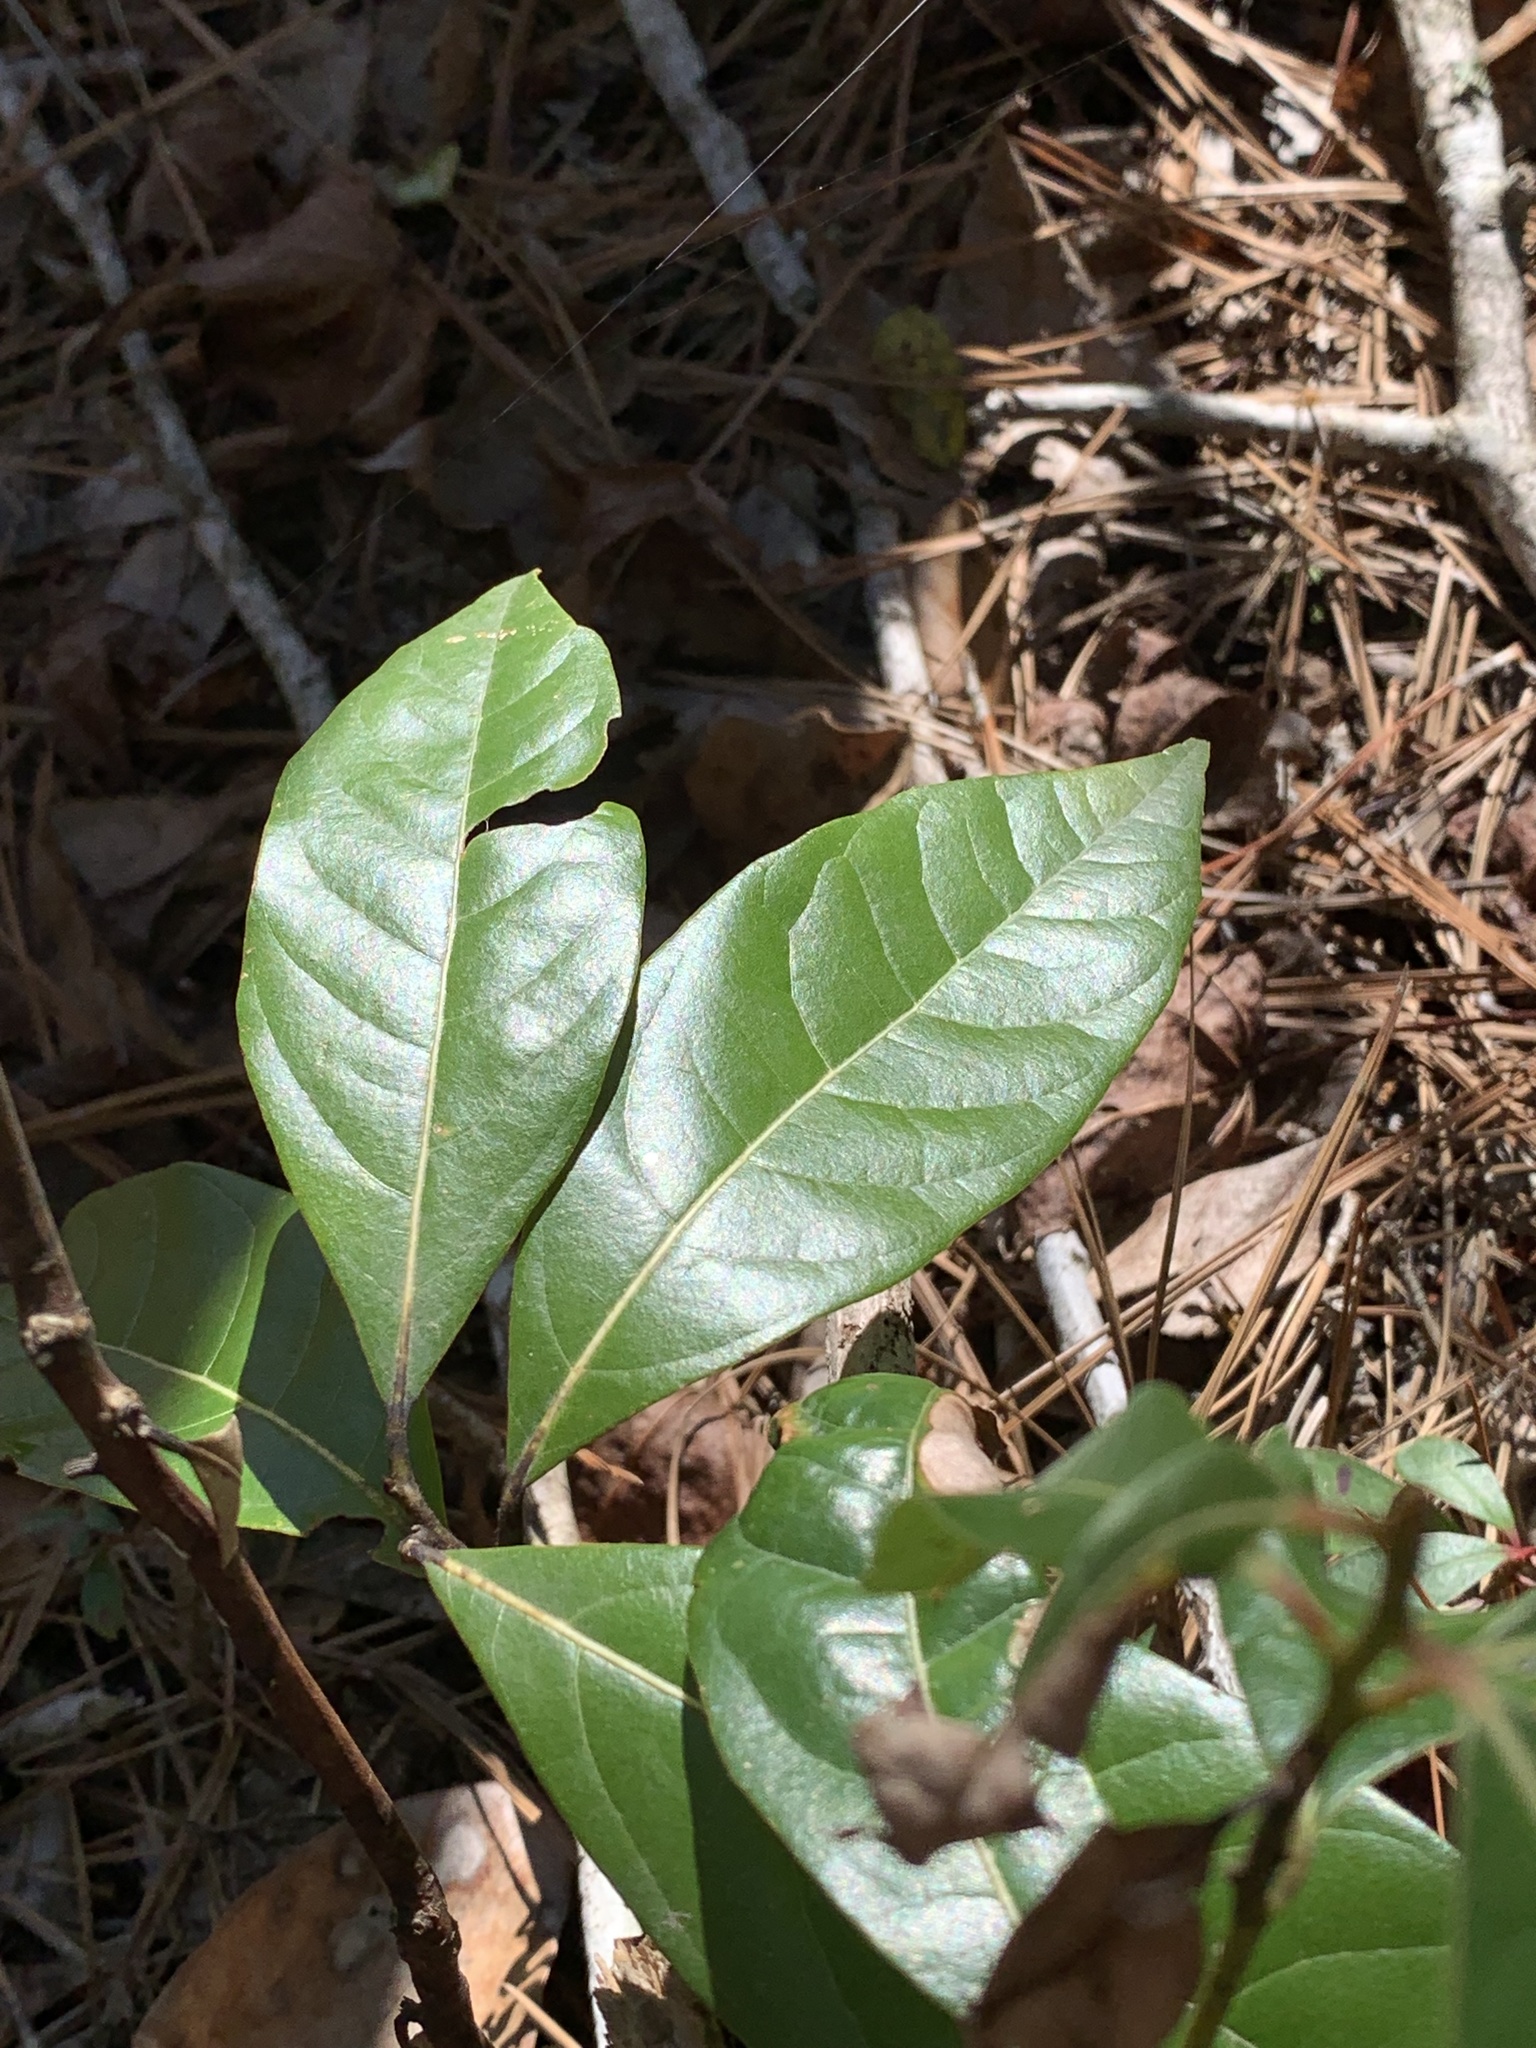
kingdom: Plantae
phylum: Tracheophyta
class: Magnoliopsida
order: Laurales
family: Lauraceae
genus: Persea
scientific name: Persea palustris
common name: Swampbay
